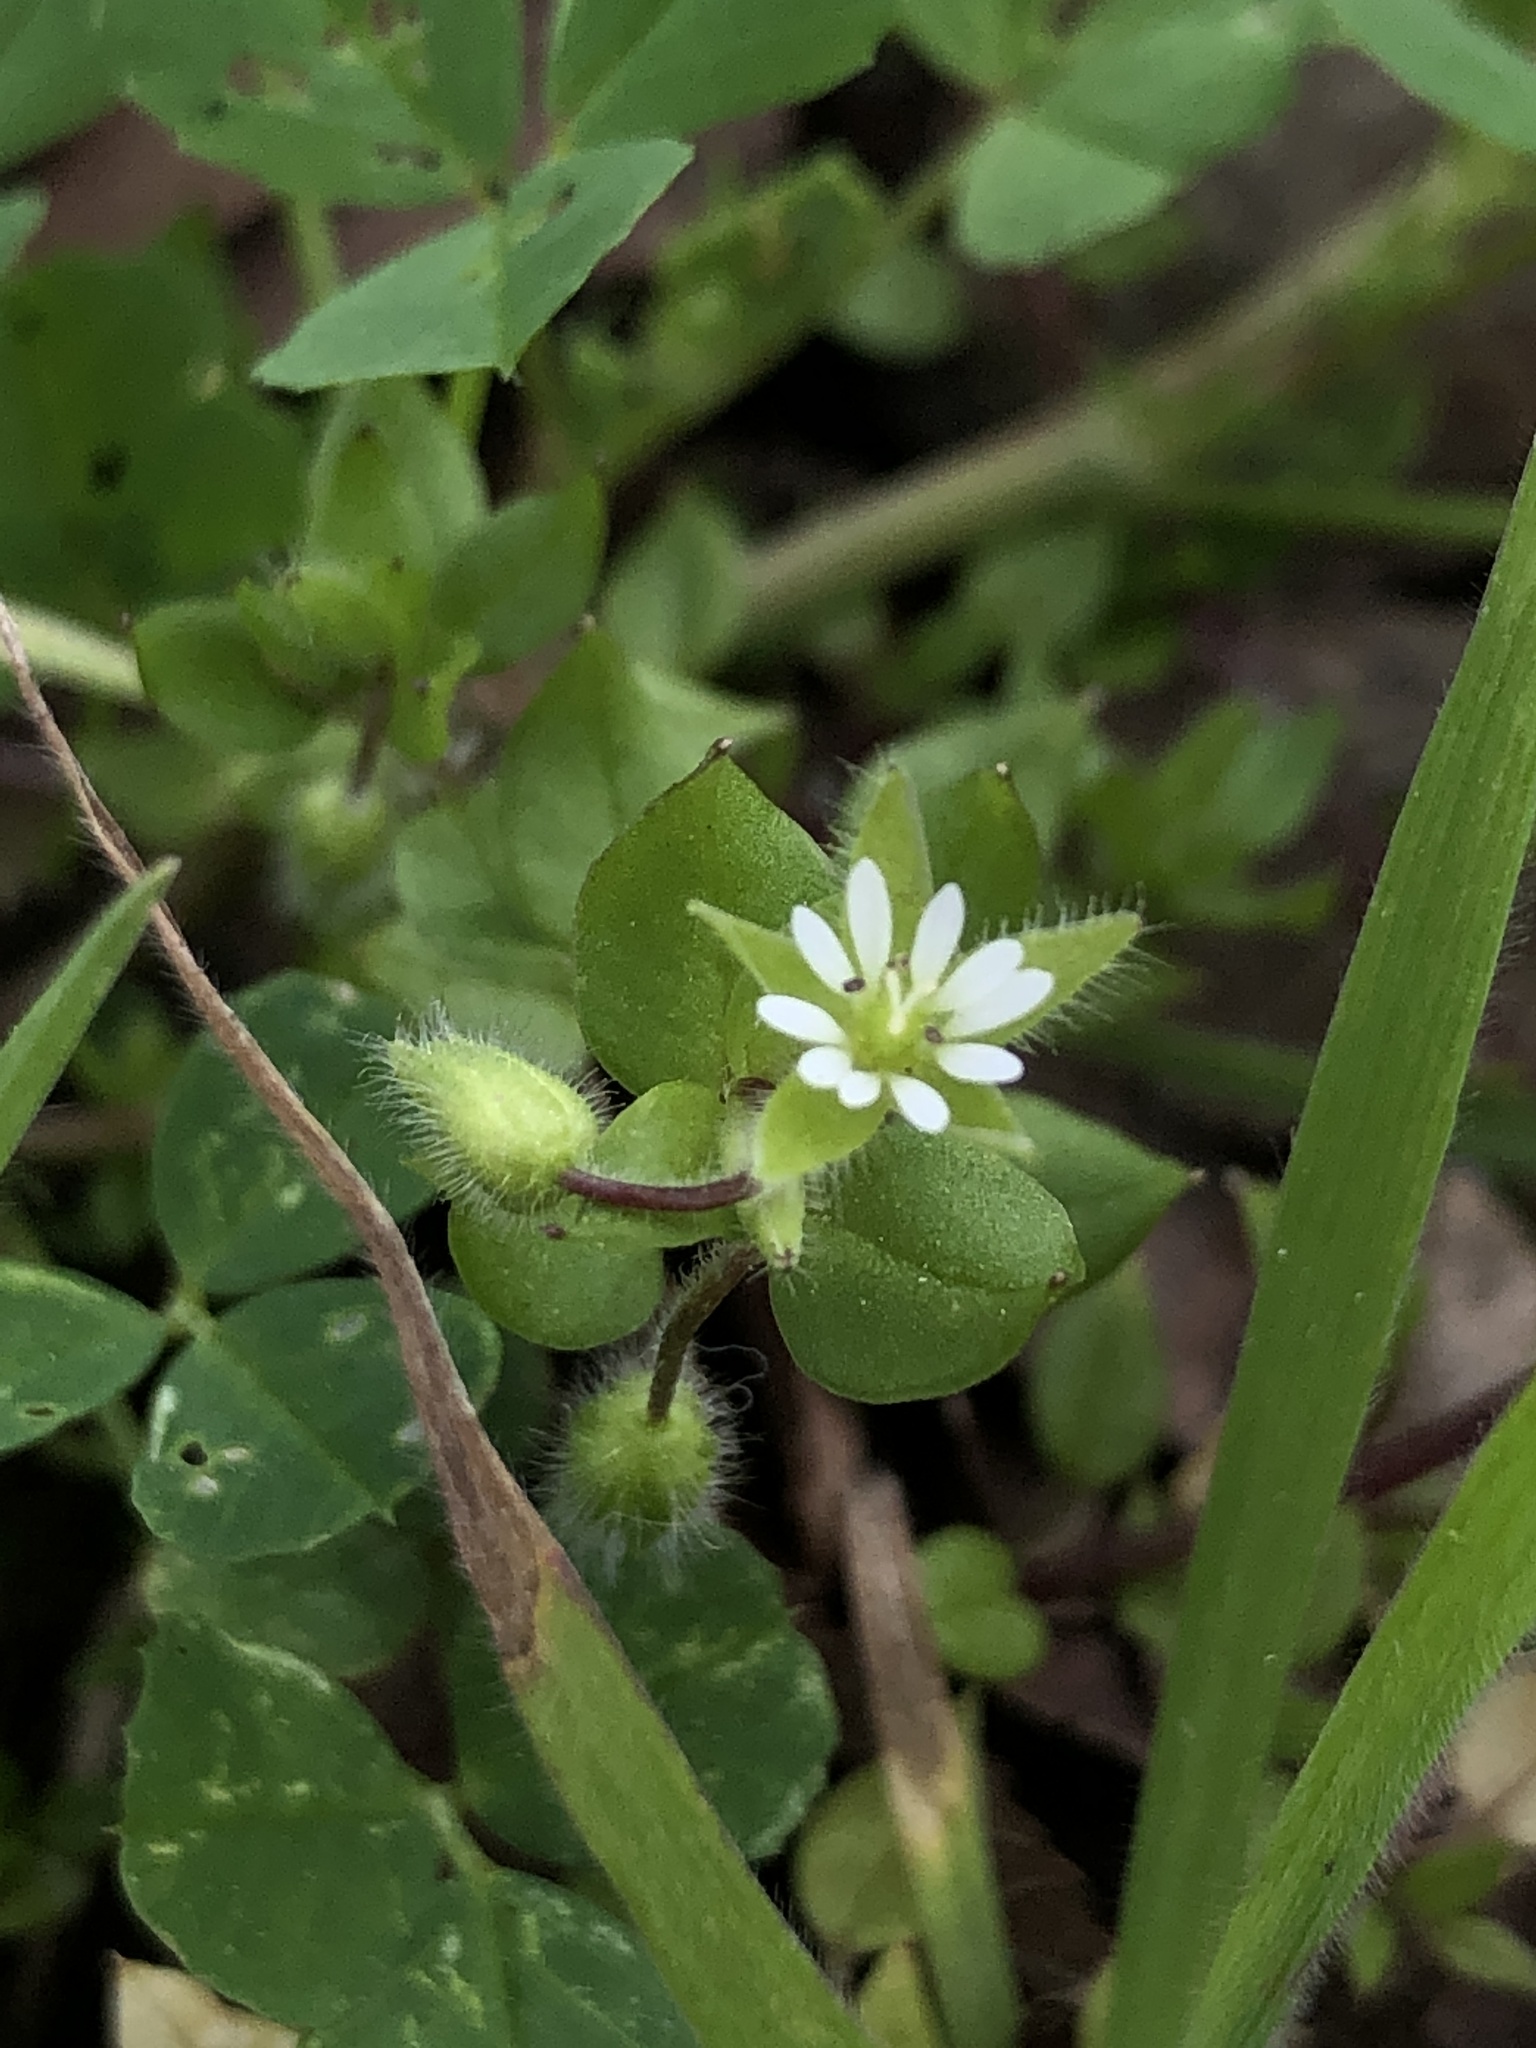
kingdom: Plantae
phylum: Tracheophyta
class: Magnoliopsida
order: Caryophyllales
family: Caryophyllaceae
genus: Stellaria
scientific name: Stellaria media
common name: Common chickweed
